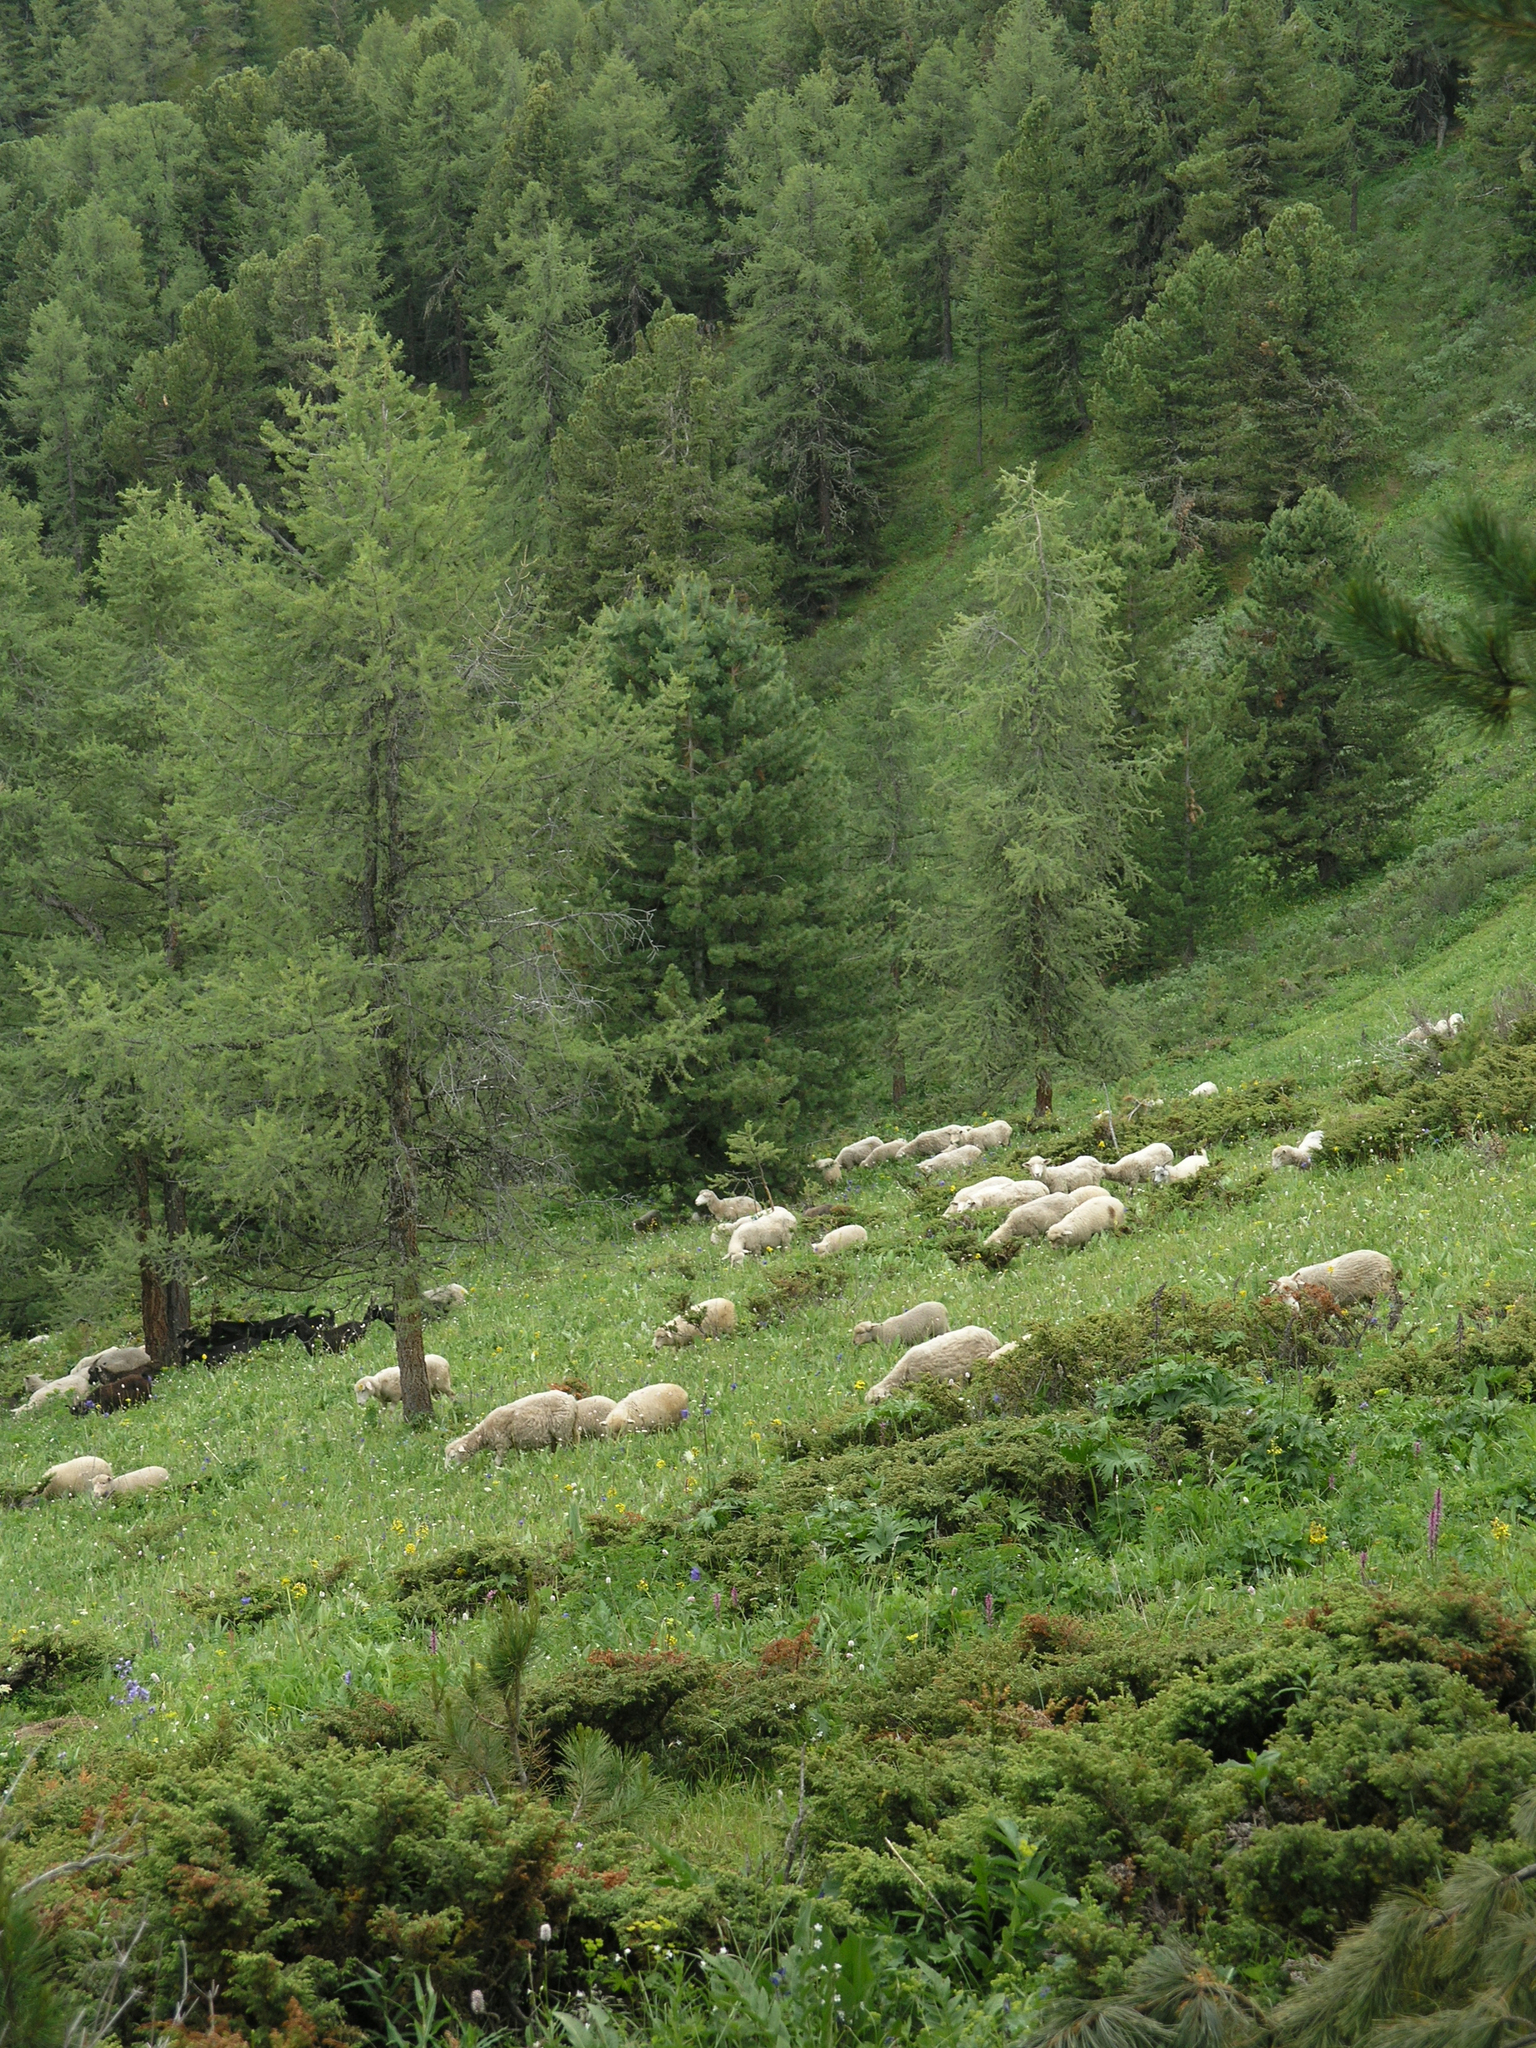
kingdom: Plantae
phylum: Tracheophyta
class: Pinopsida
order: Pinales
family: Pinaceae
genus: Larix
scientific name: Larix sibirica
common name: Siberian larch
